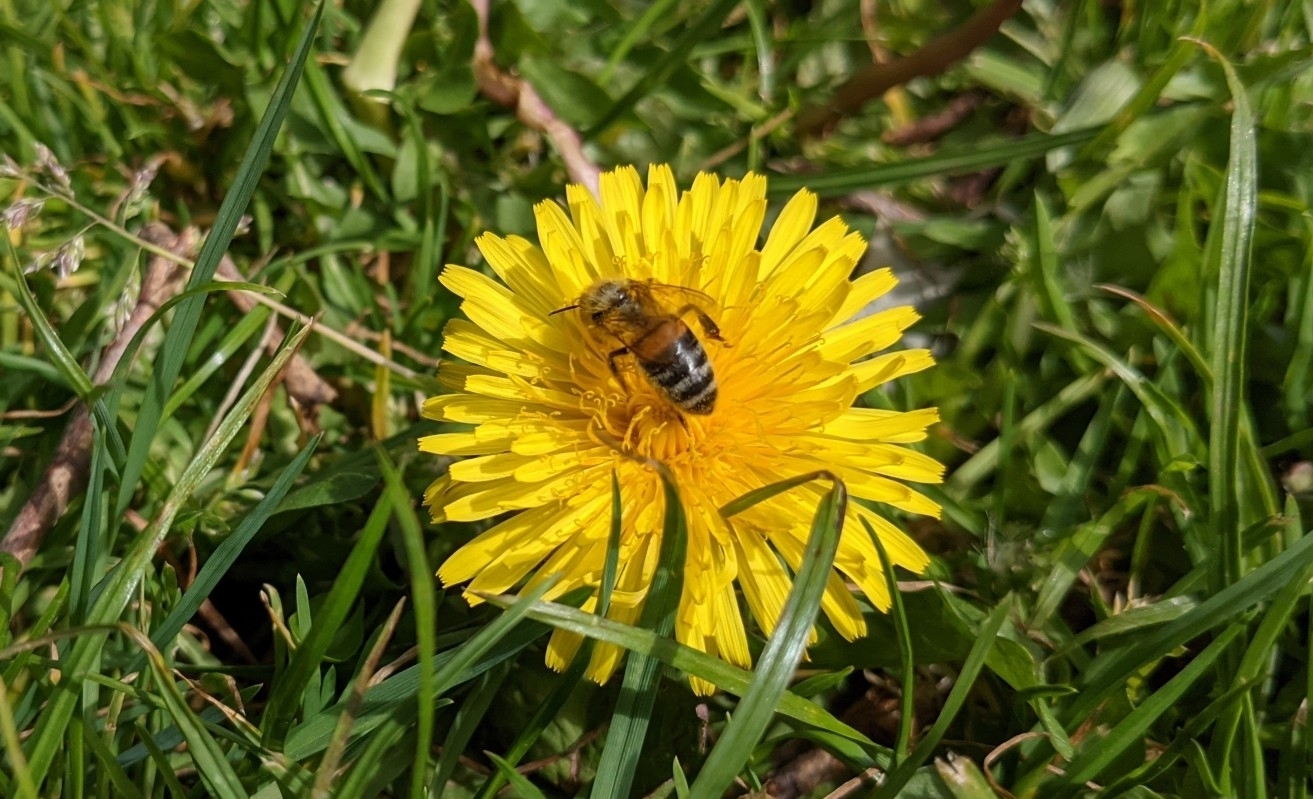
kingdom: Animalia
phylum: Arthropoda
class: Insecta
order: Hymenoptera
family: Apidae
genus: Apis
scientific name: Apis mellifera
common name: Honey bee
